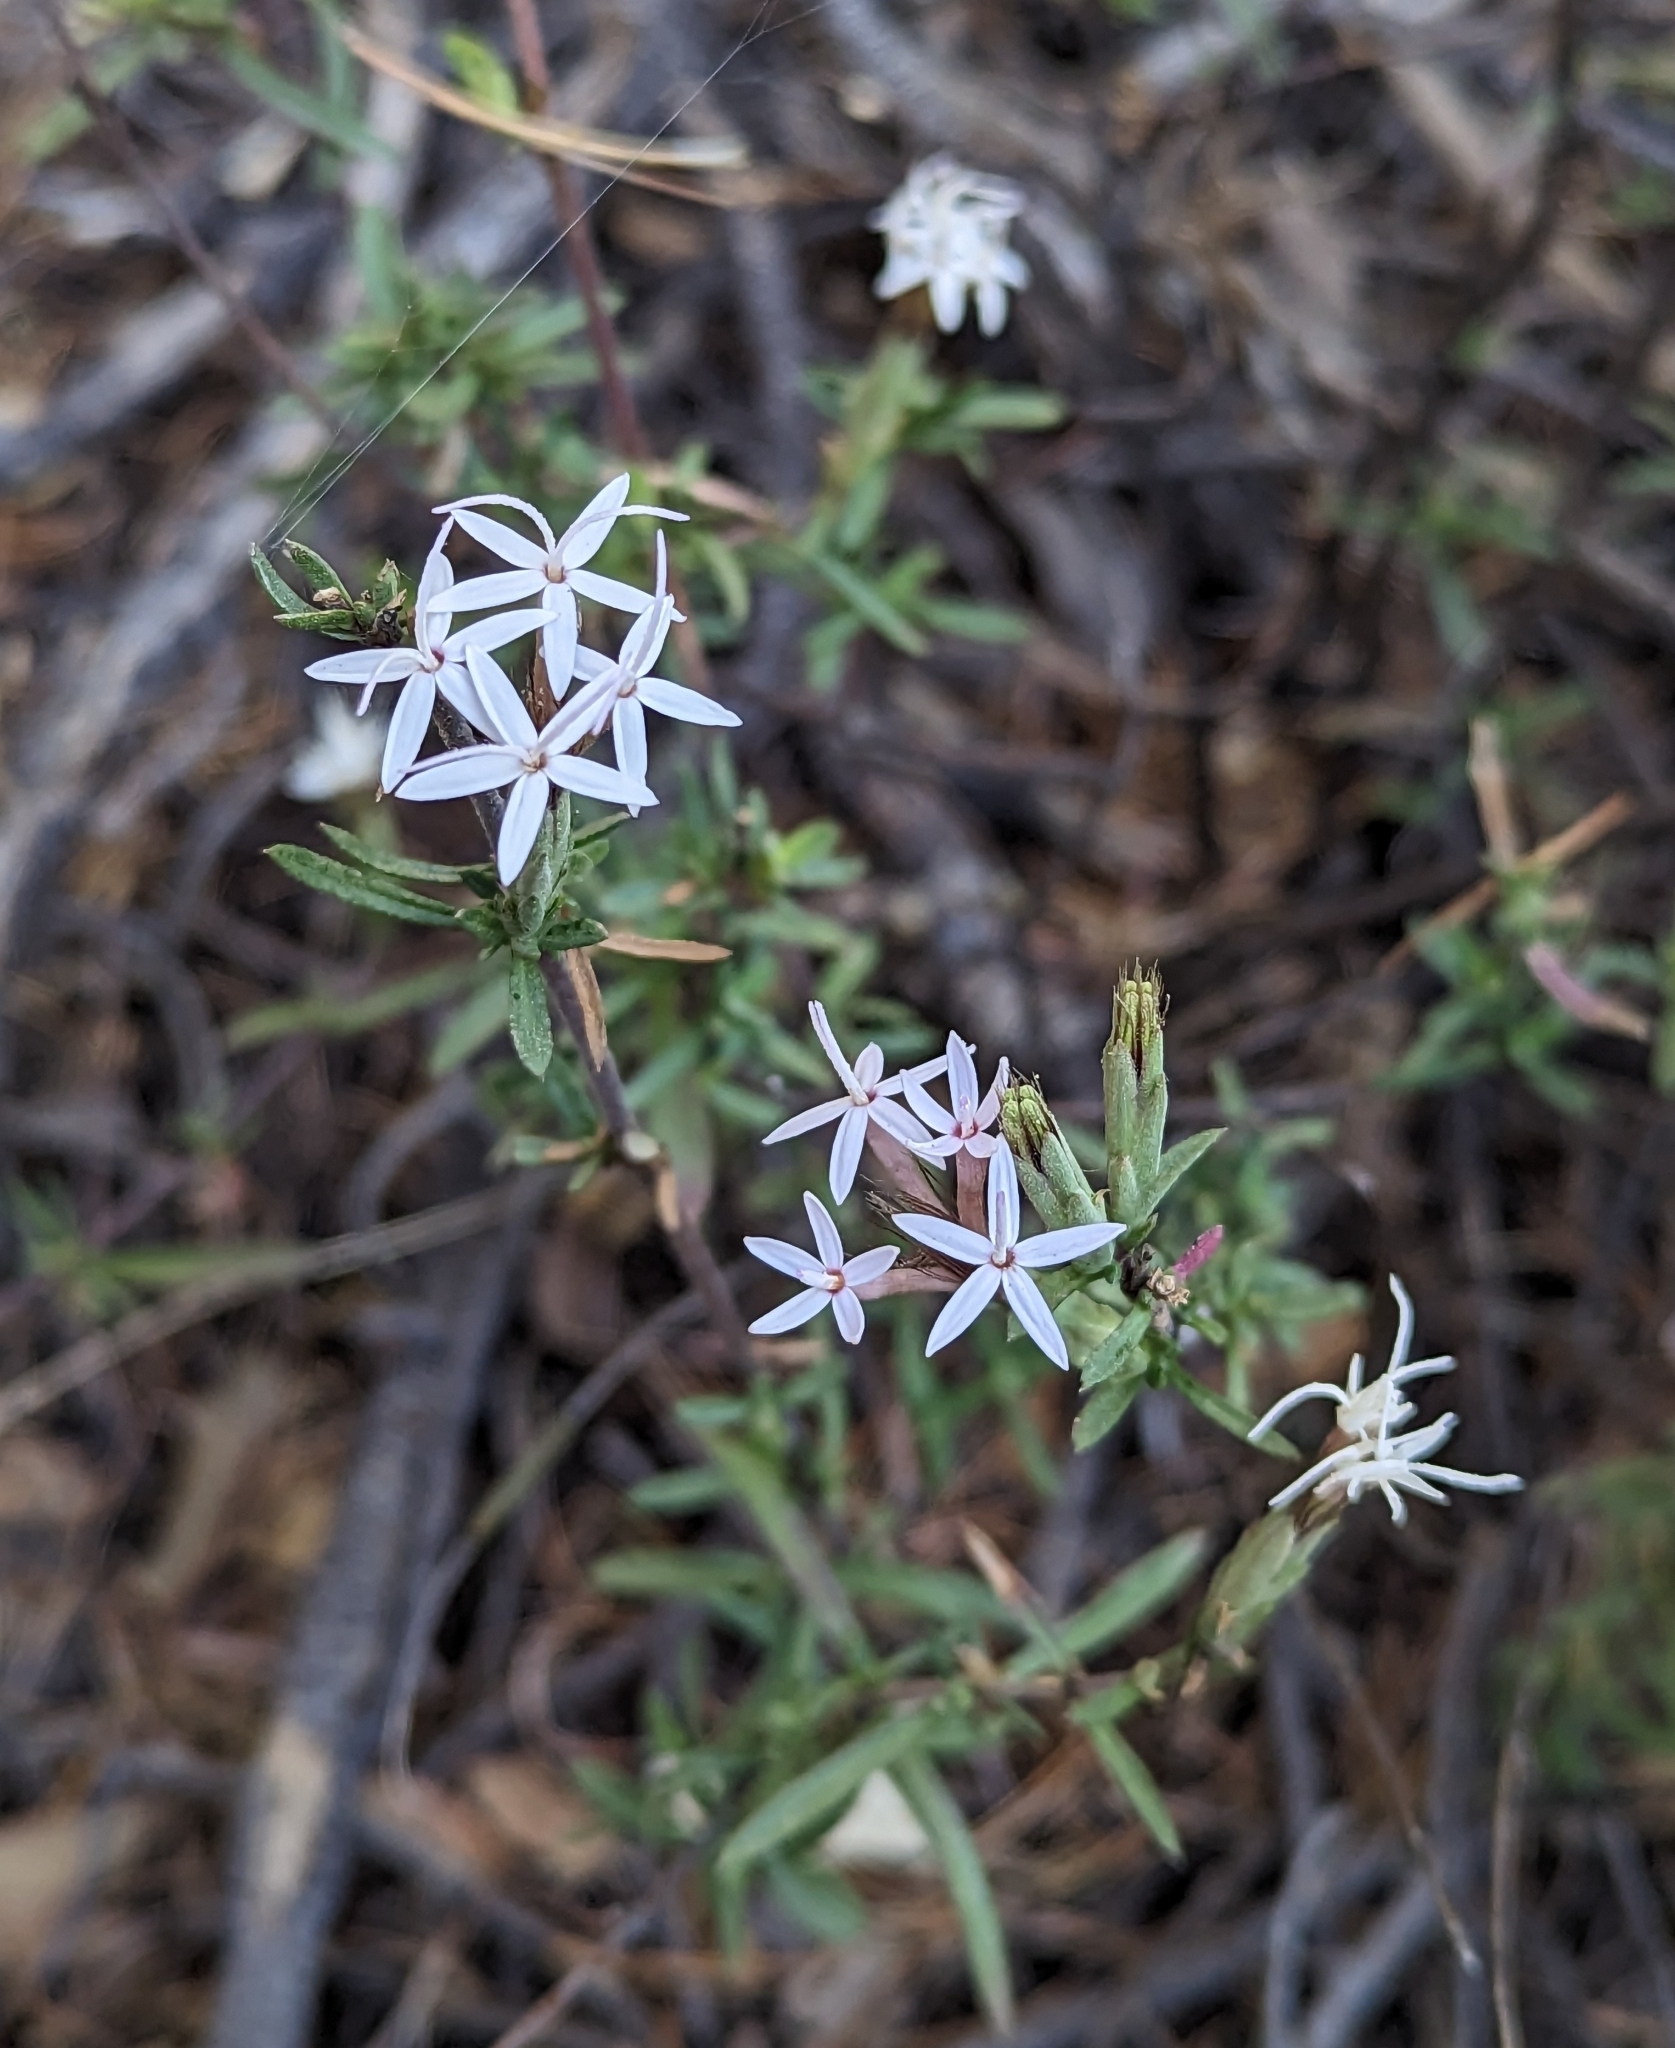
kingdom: Plantae
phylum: Tracheophyta
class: Magnoliopsida
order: Asterales
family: Asteraceae
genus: Carphochaete
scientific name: Carphochaete bigelovii
